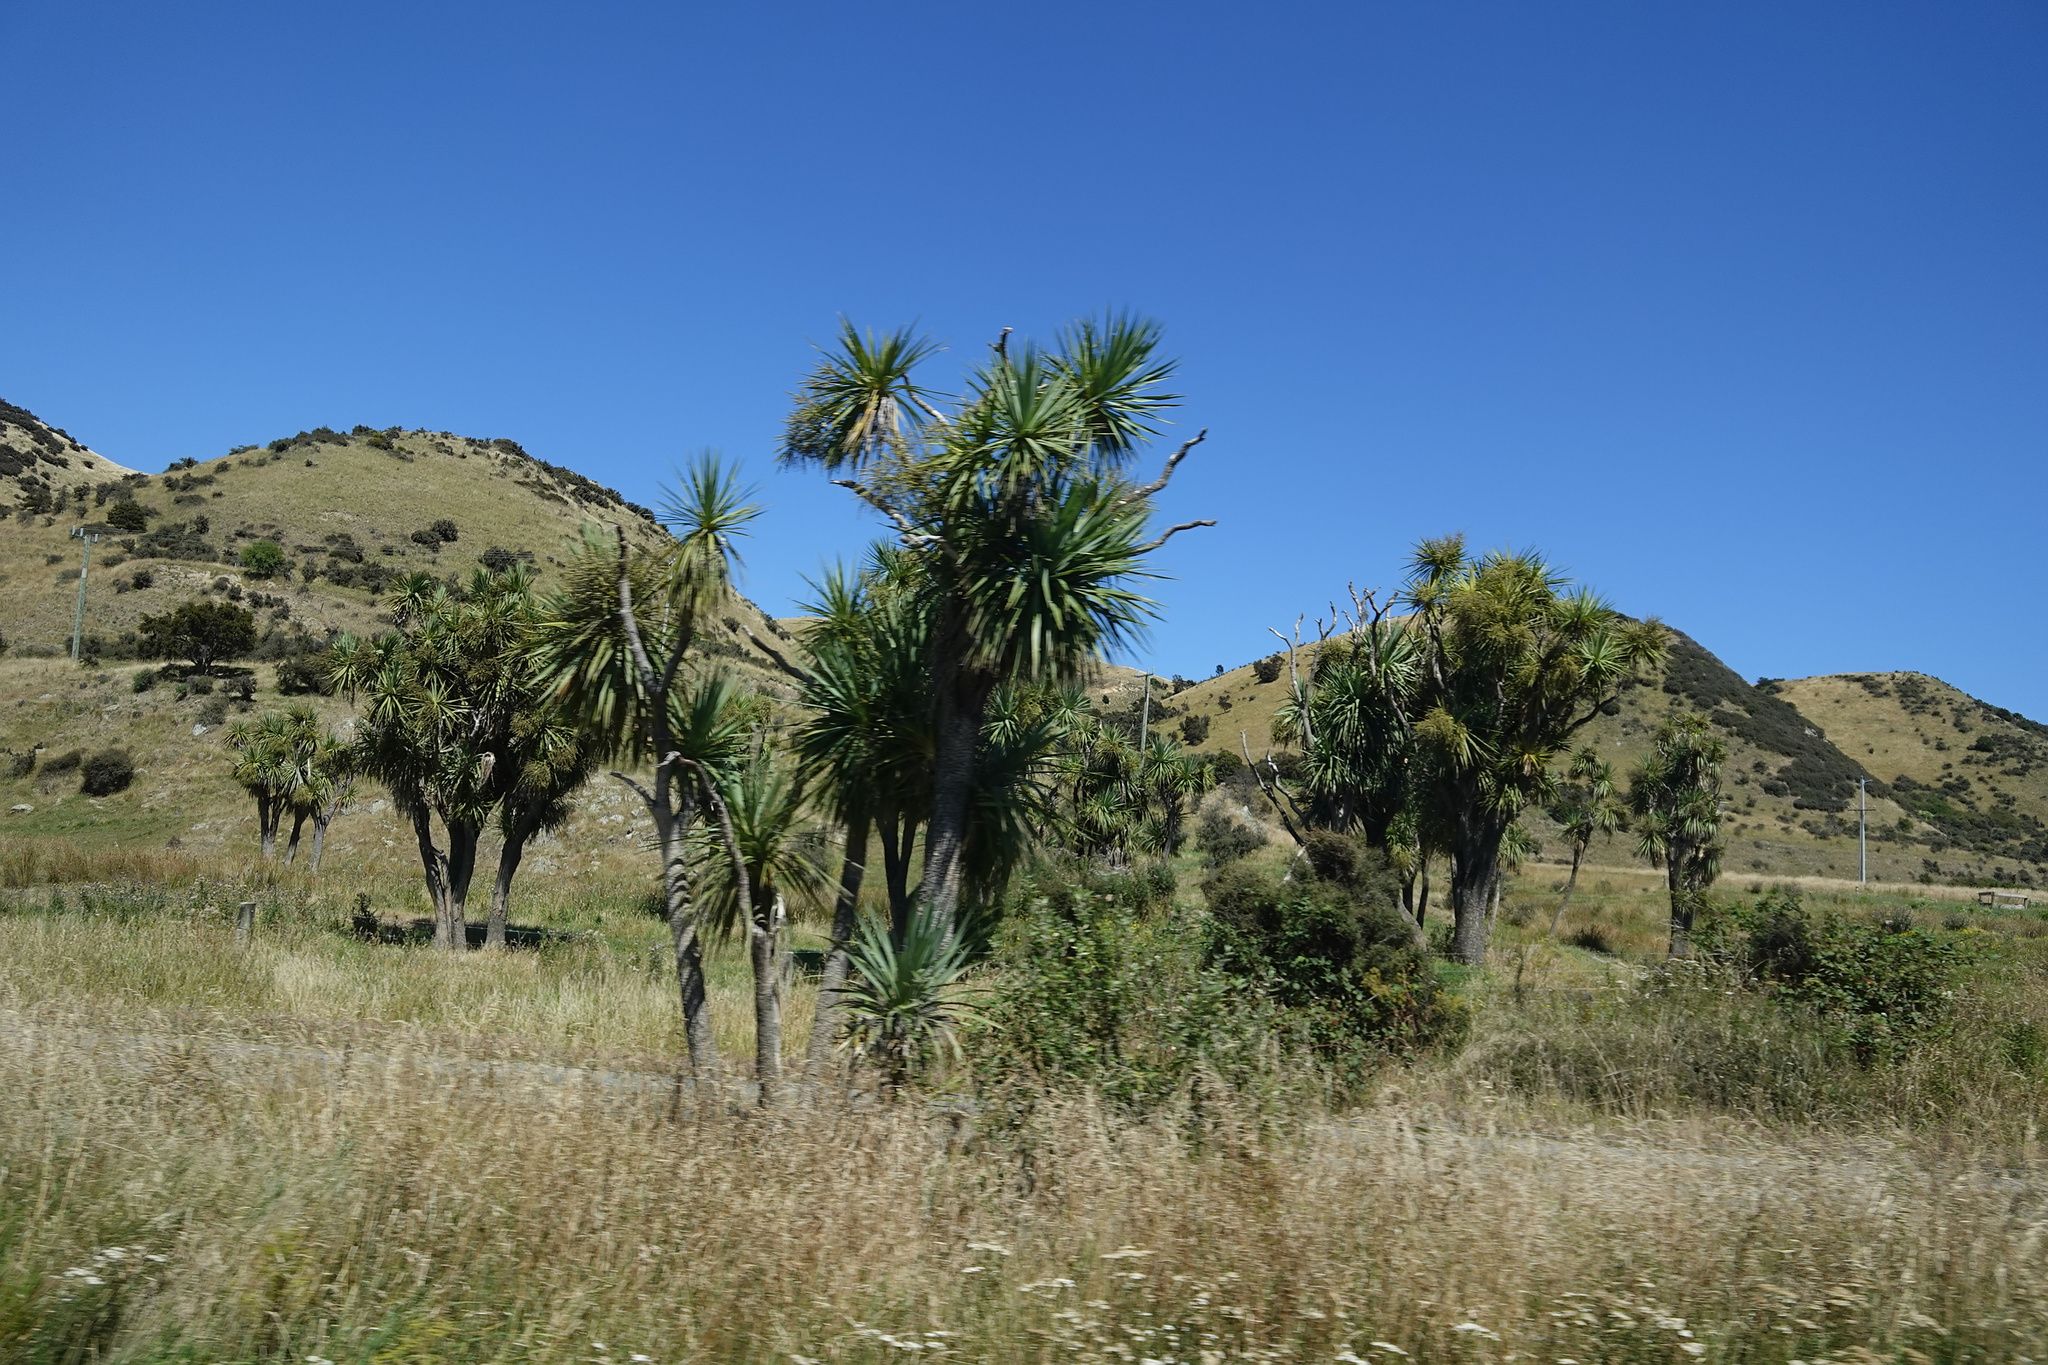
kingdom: Plantae
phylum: Tracheophyta
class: Liliopsida
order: Asparagales
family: Asparagaceae
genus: Cordyline
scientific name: Cordyline australis
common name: Cabbage-palm
